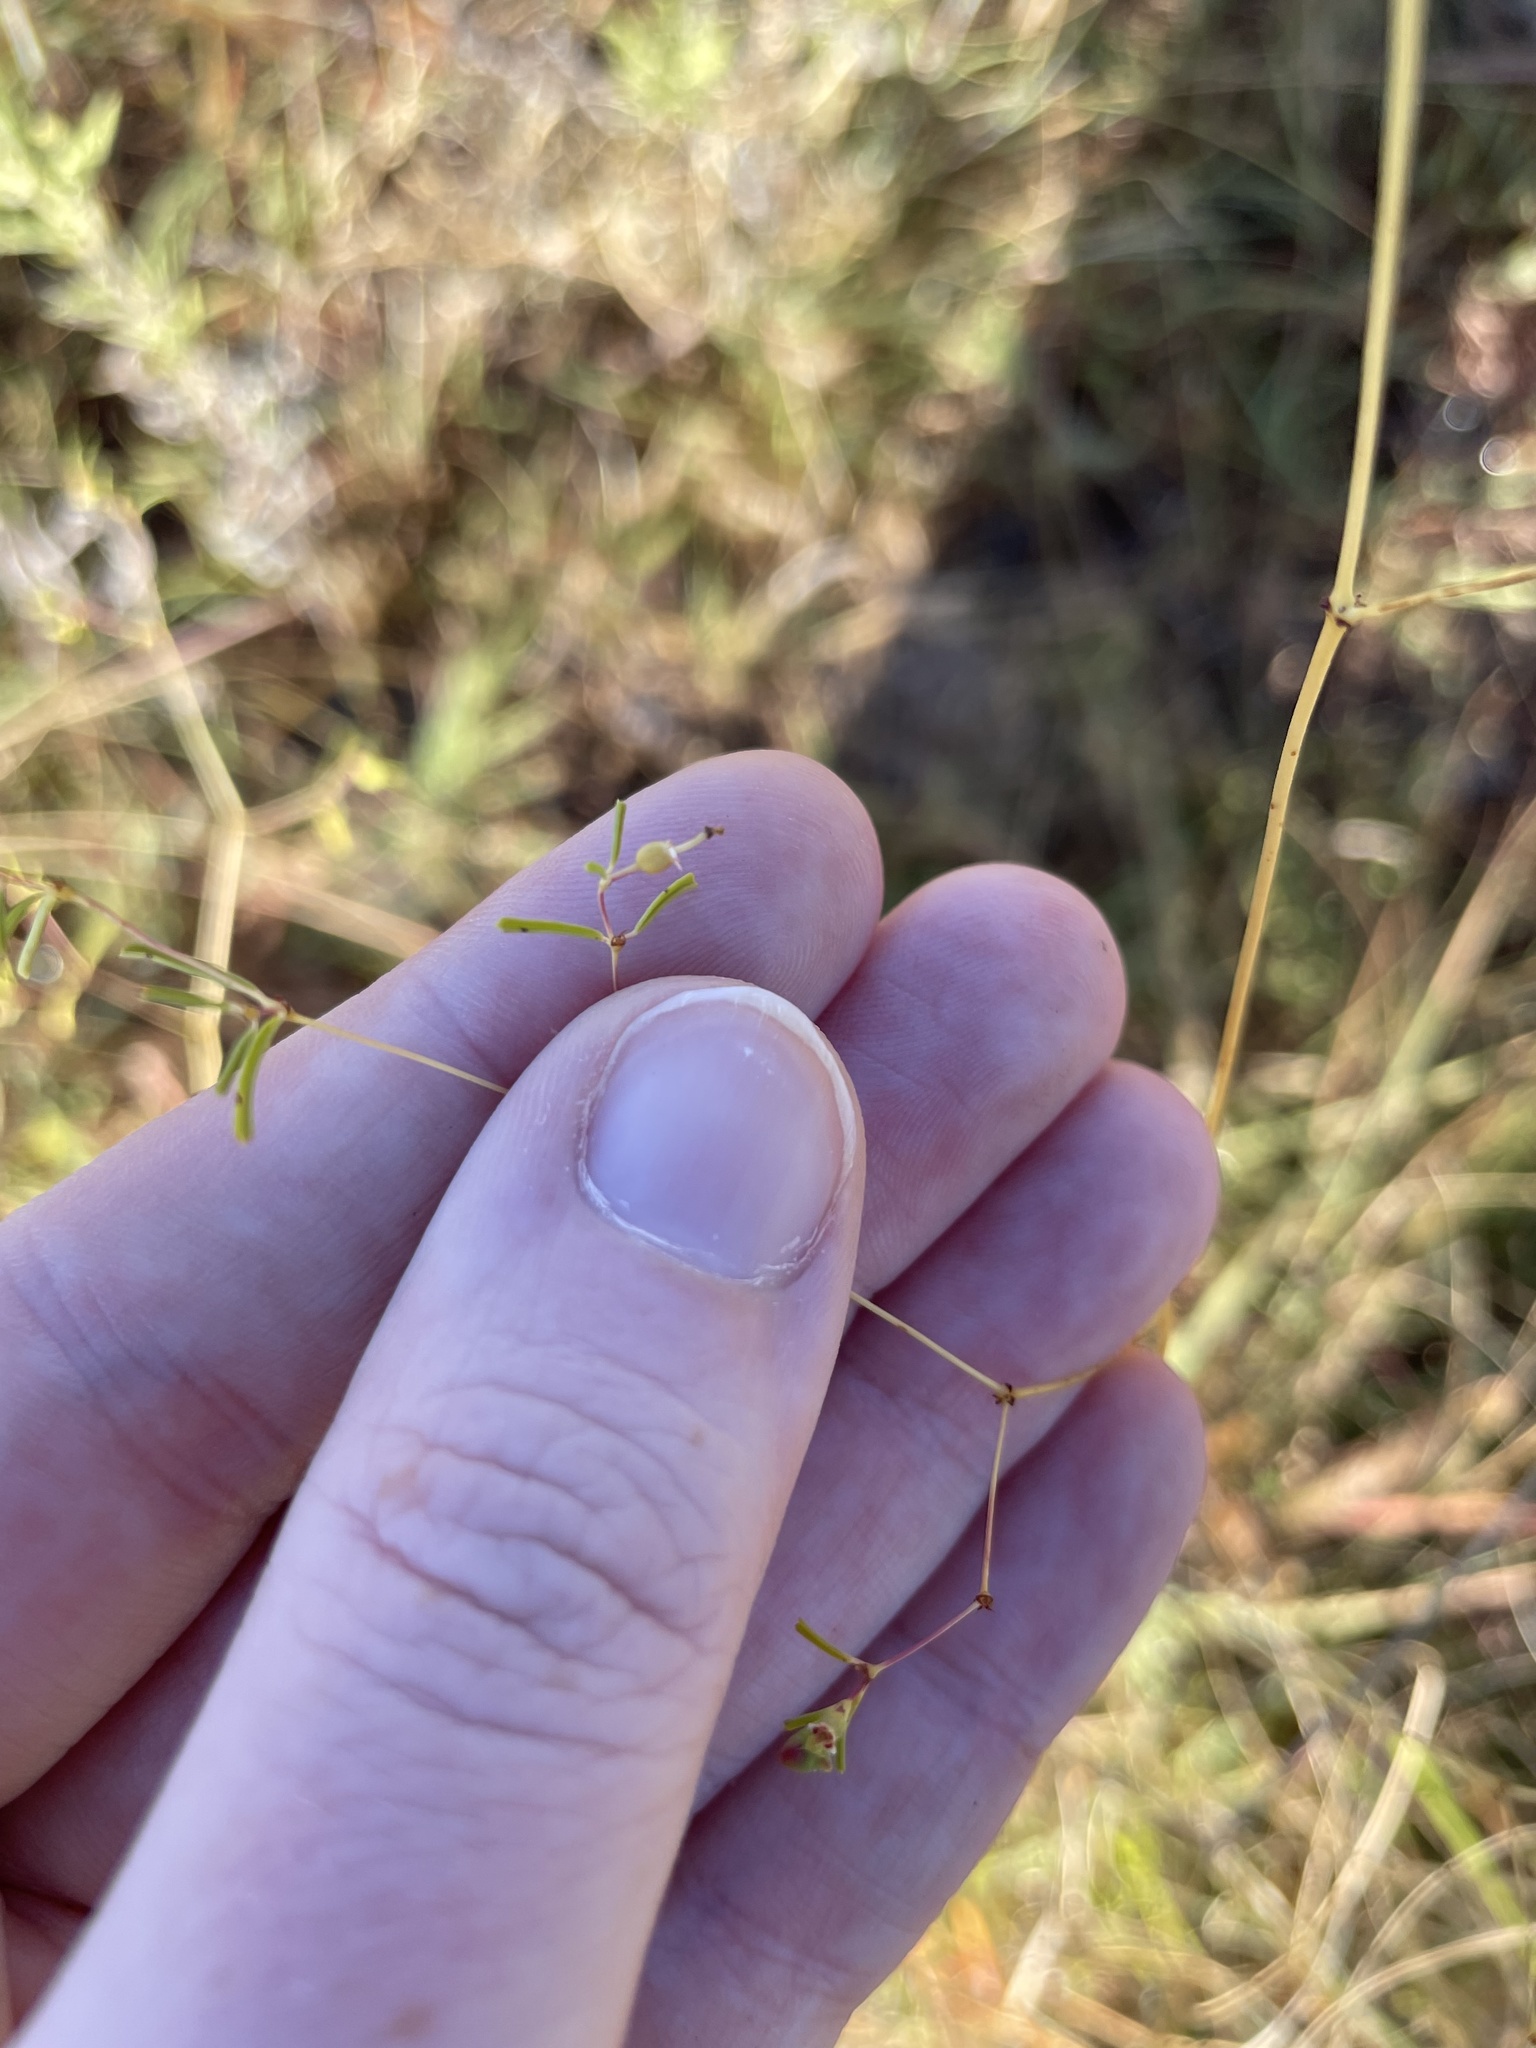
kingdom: Plantae
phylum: Tracheophyta
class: Magnoliopsida
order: Malpighiales
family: Euphorbiaceae
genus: Euphorbia
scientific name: Euphorbia missurica
